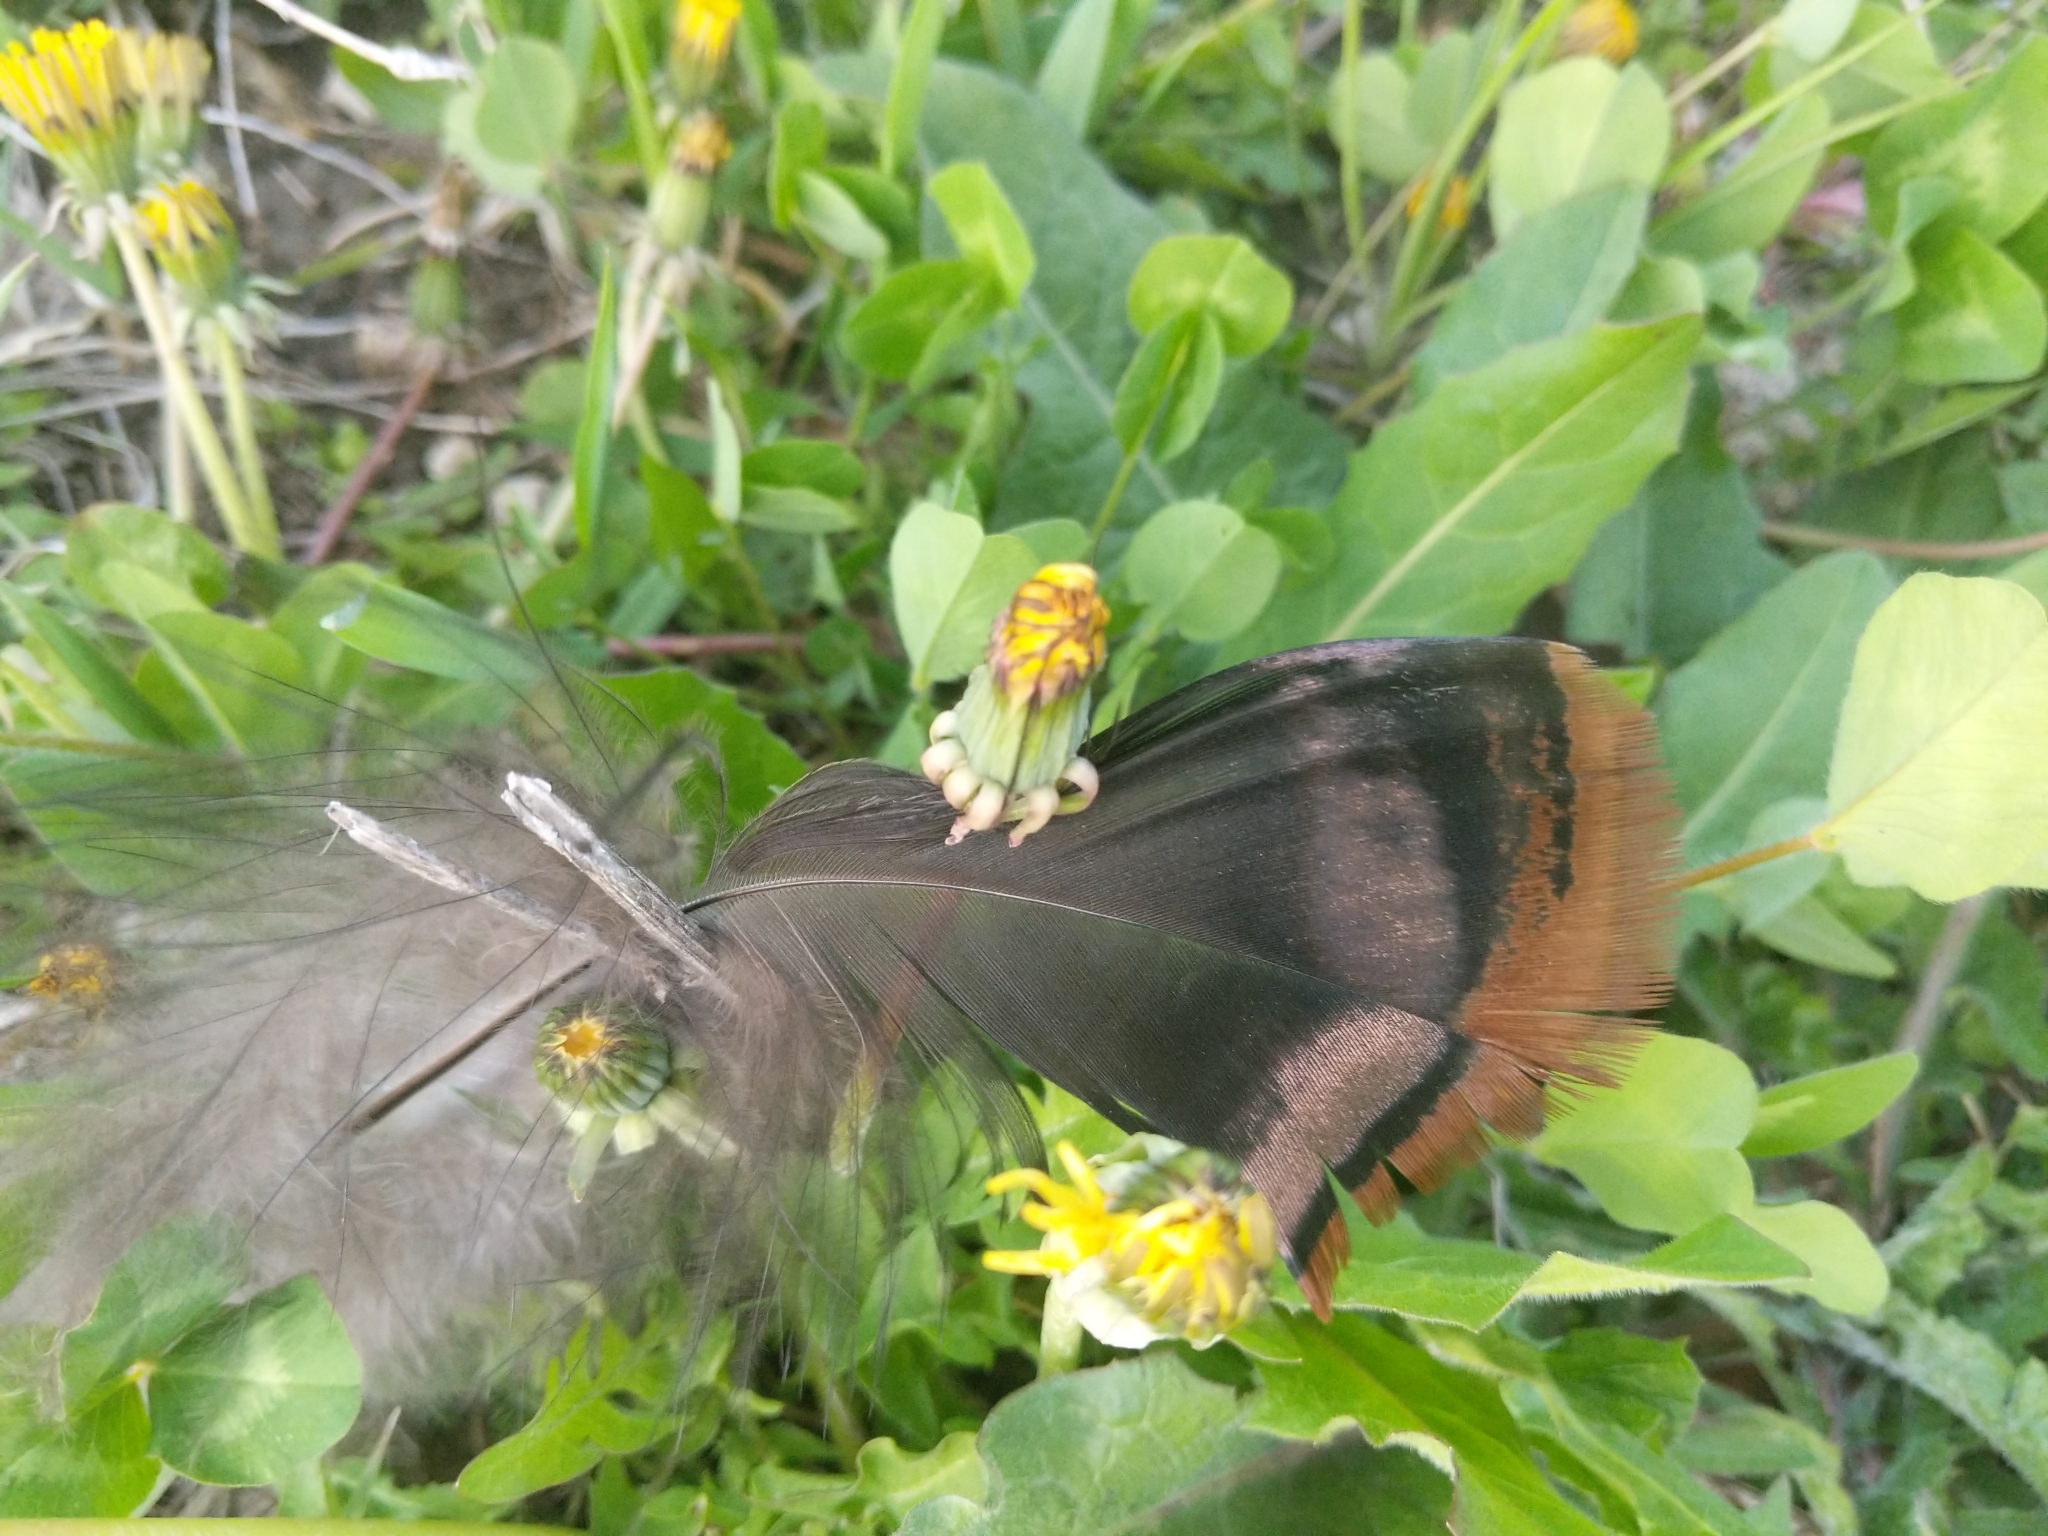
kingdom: Animalia
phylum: Chordata
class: Aves
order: Galliformes
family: Phasianidae
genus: Meleagris
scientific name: Meleagris gallopavo
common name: Wild turkey
